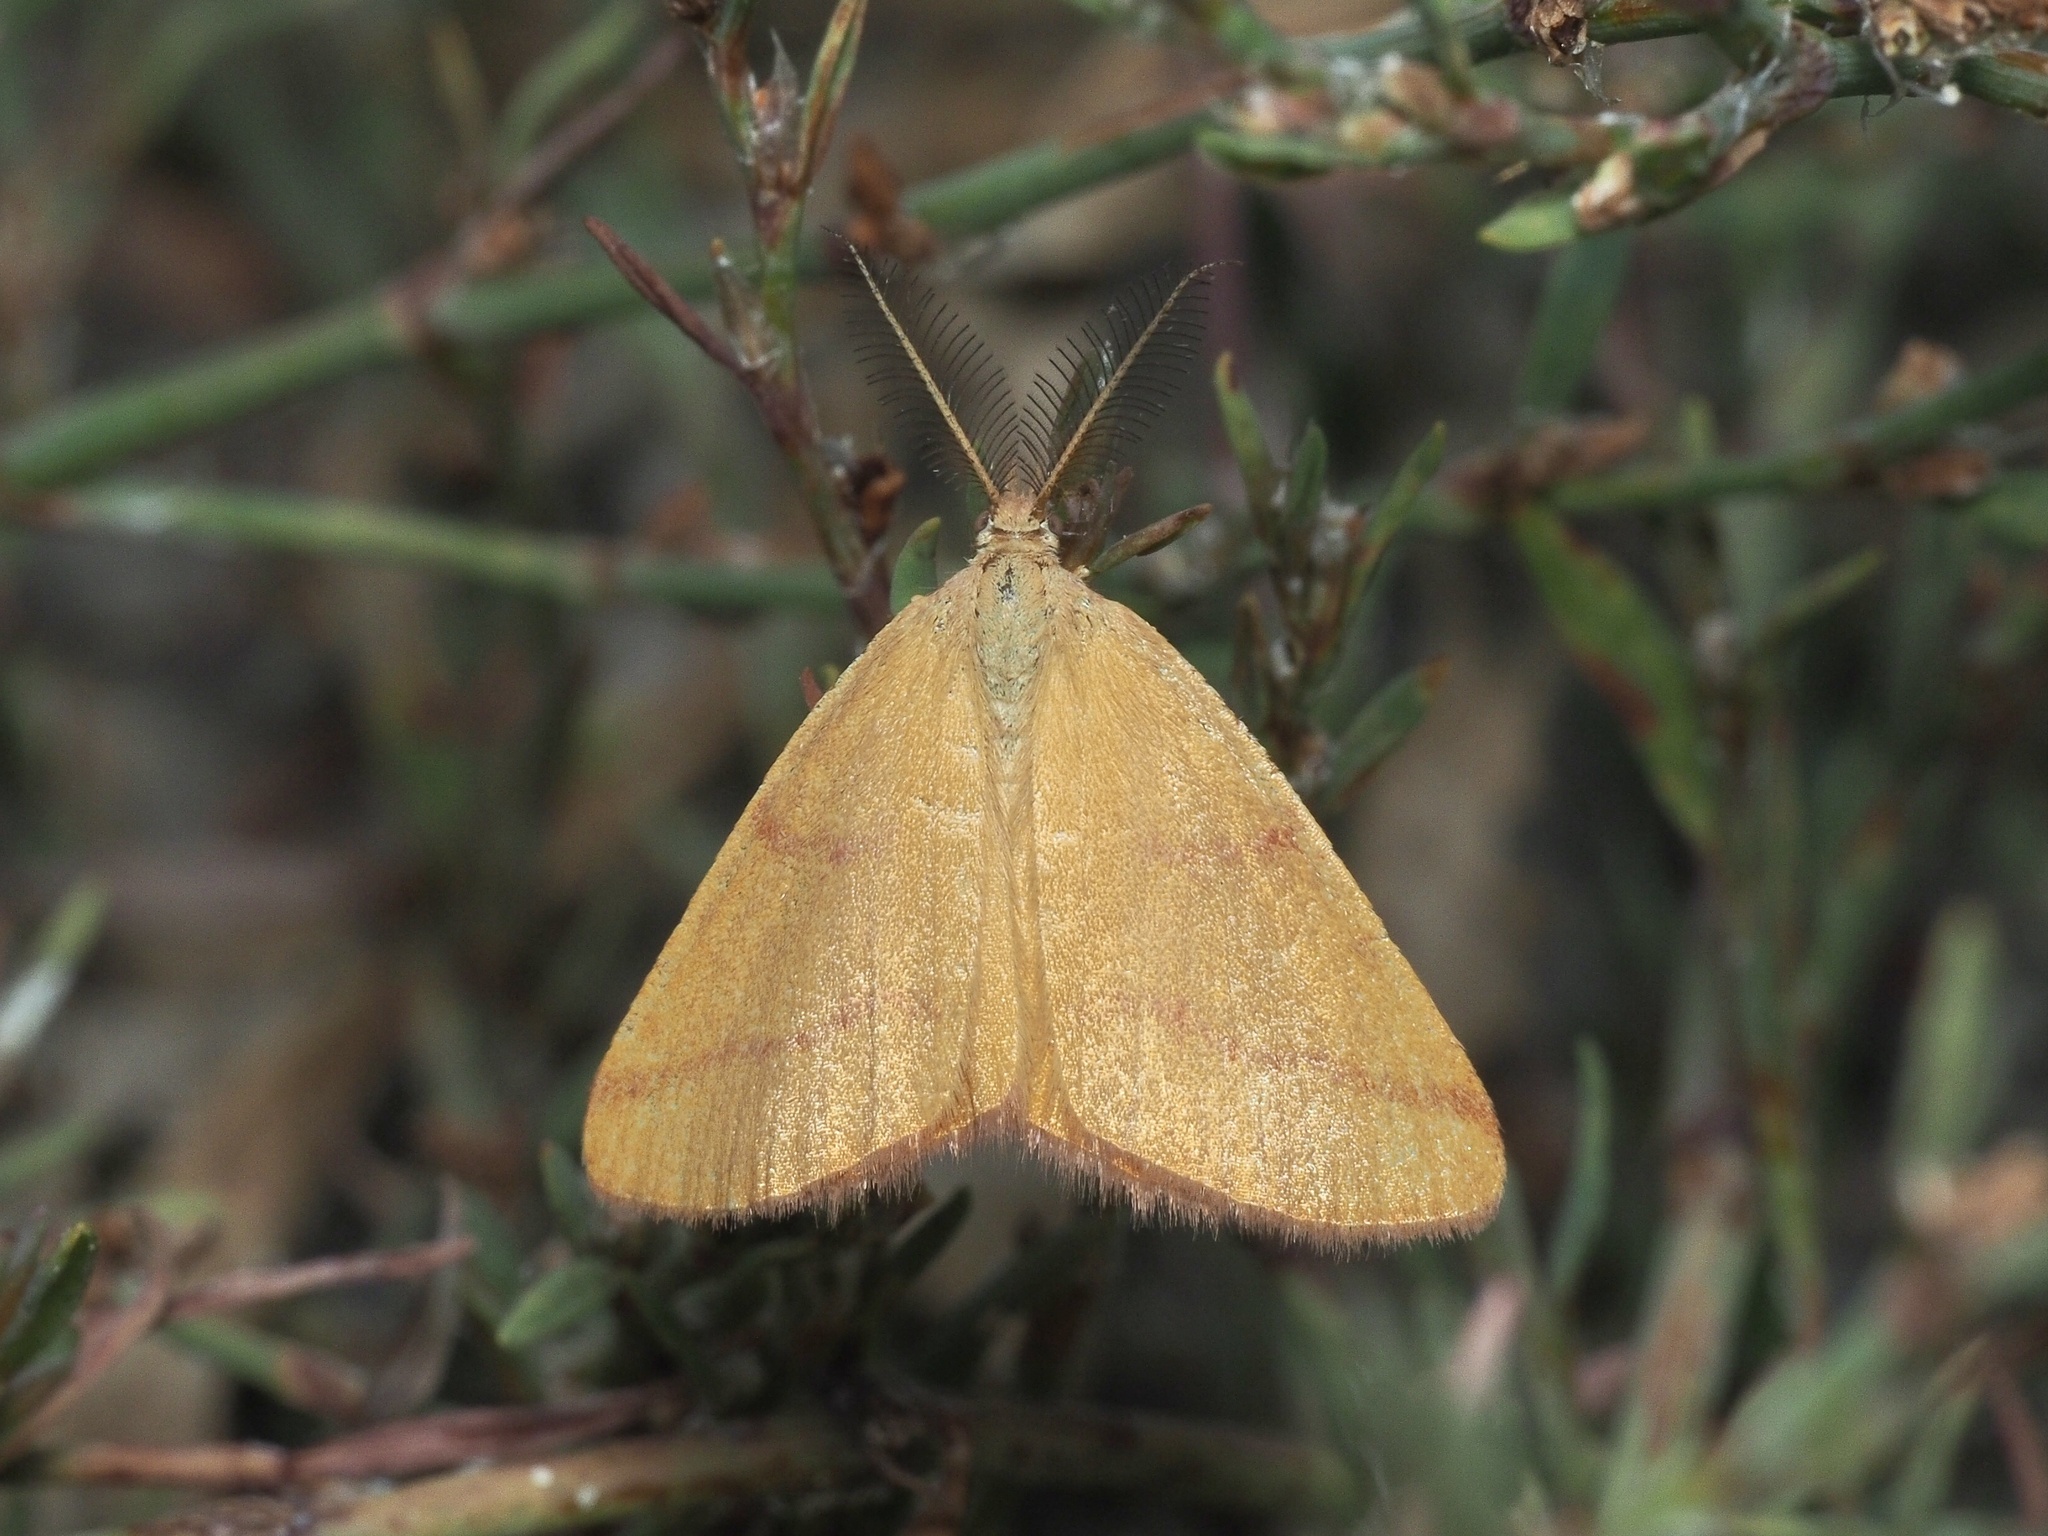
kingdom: Animalia
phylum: Arthropoda
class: Insecta
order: Lepidoptera
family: Geometridae
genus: Lythria
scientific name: Lythria purpuraria
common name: Purple-barred yellow
